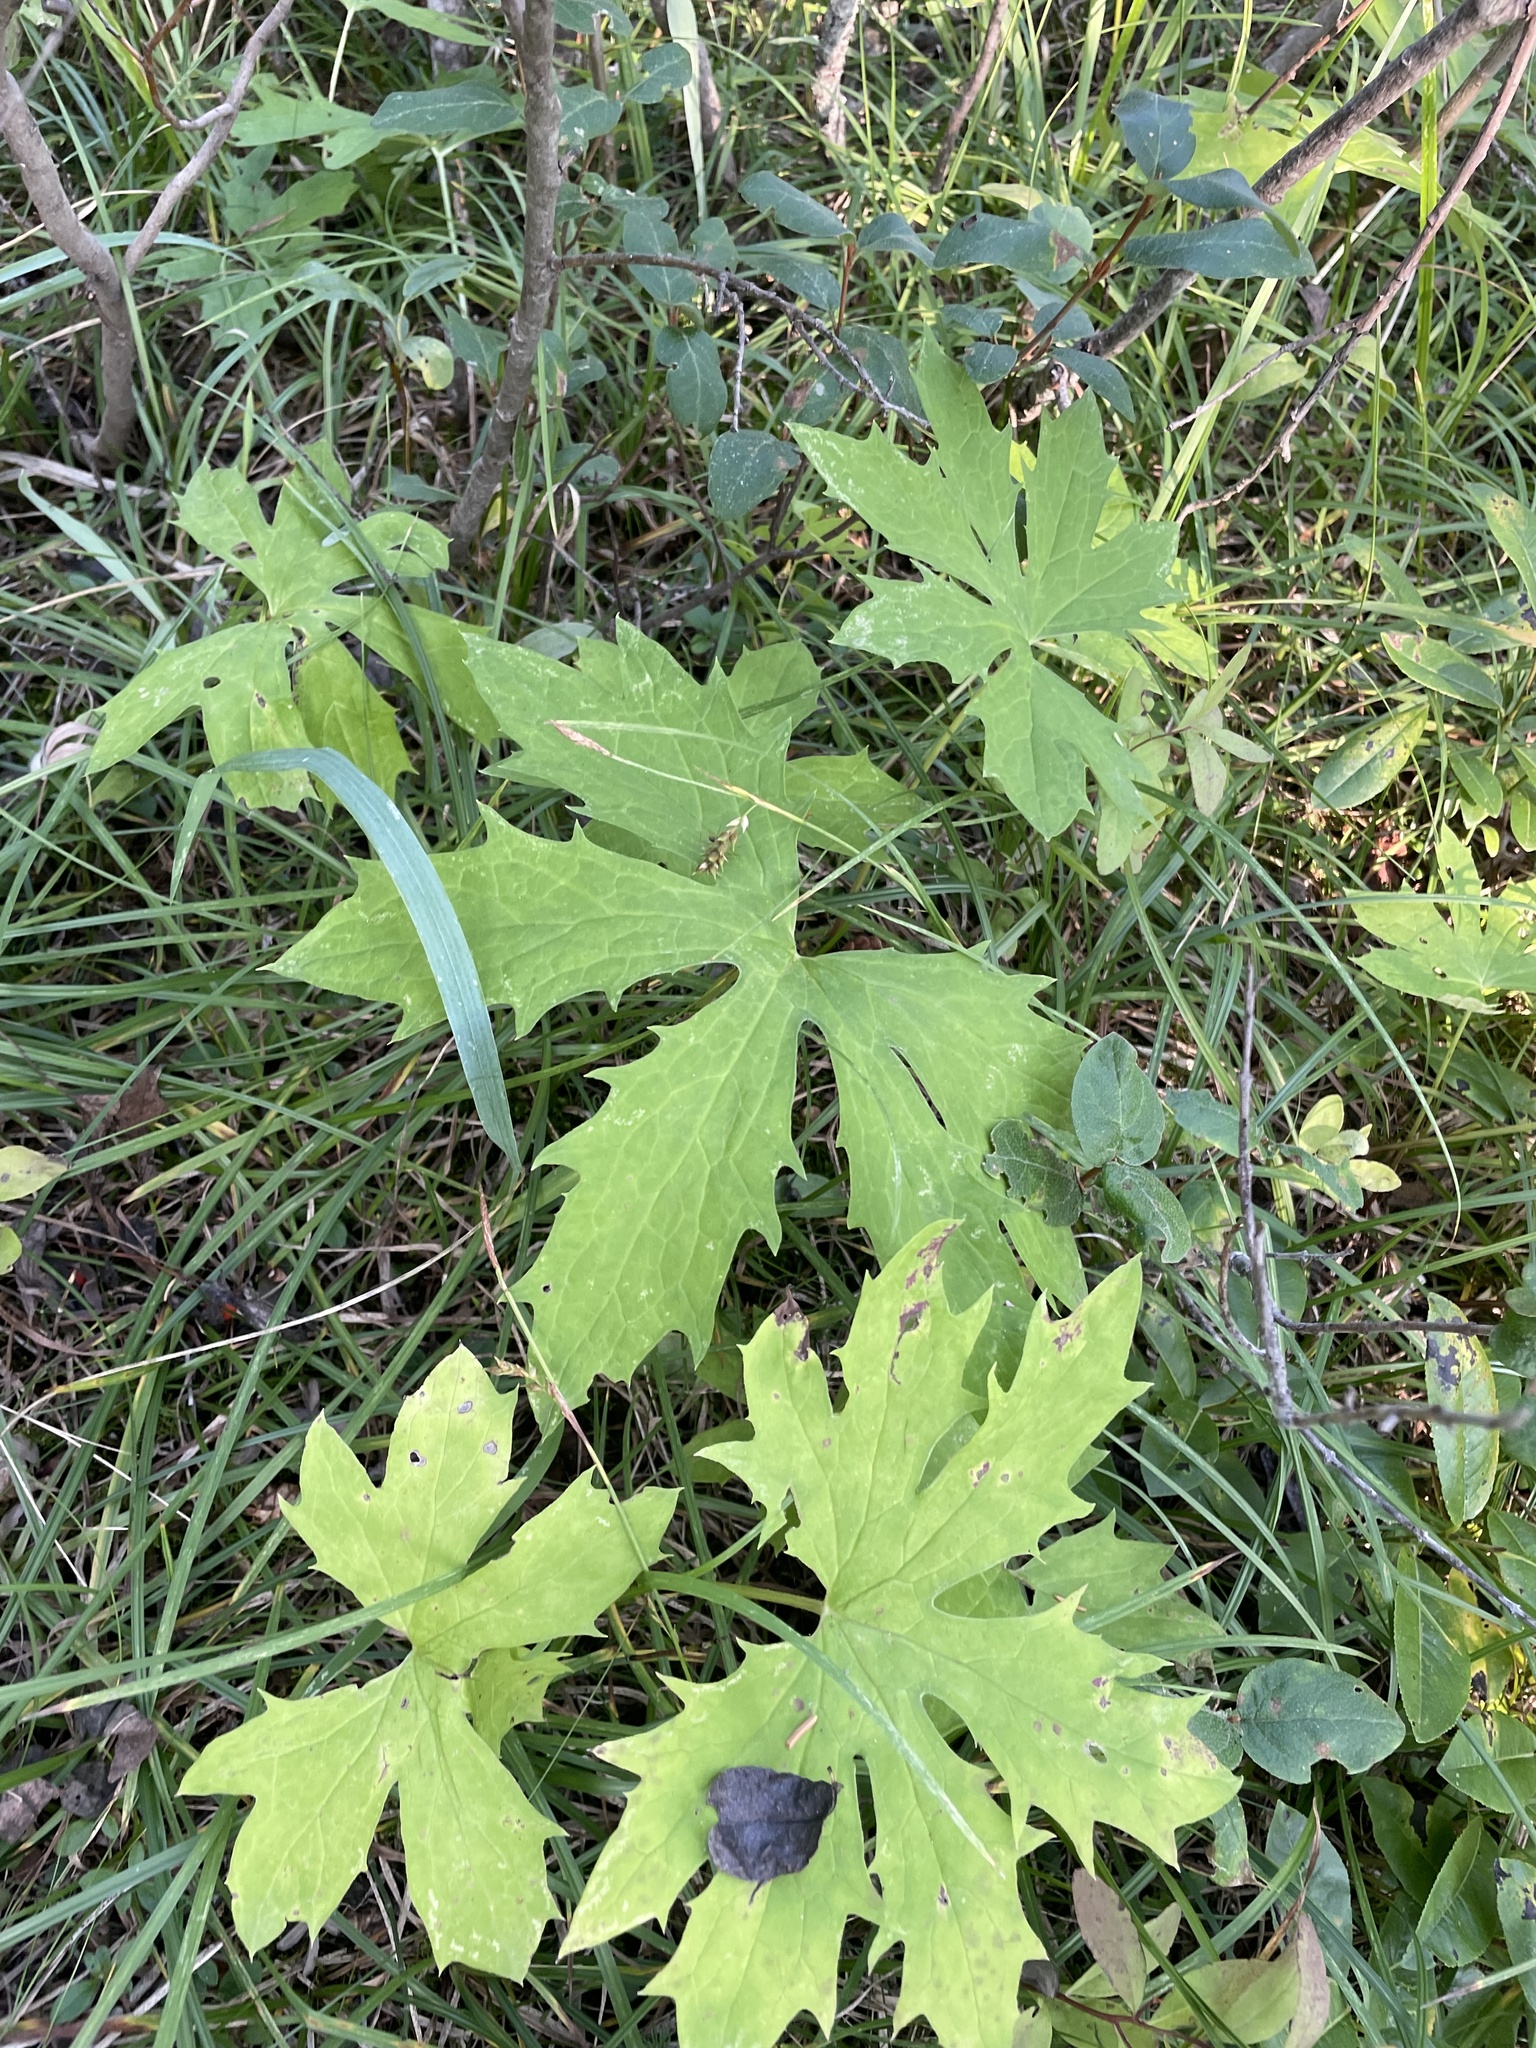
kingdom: Plantae
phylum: Tracheophyta
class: Magnoliopsida
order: Asterales
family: Asteraceae
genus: Petasites
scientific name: Petasites frigidus
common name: Arctic butterbur
